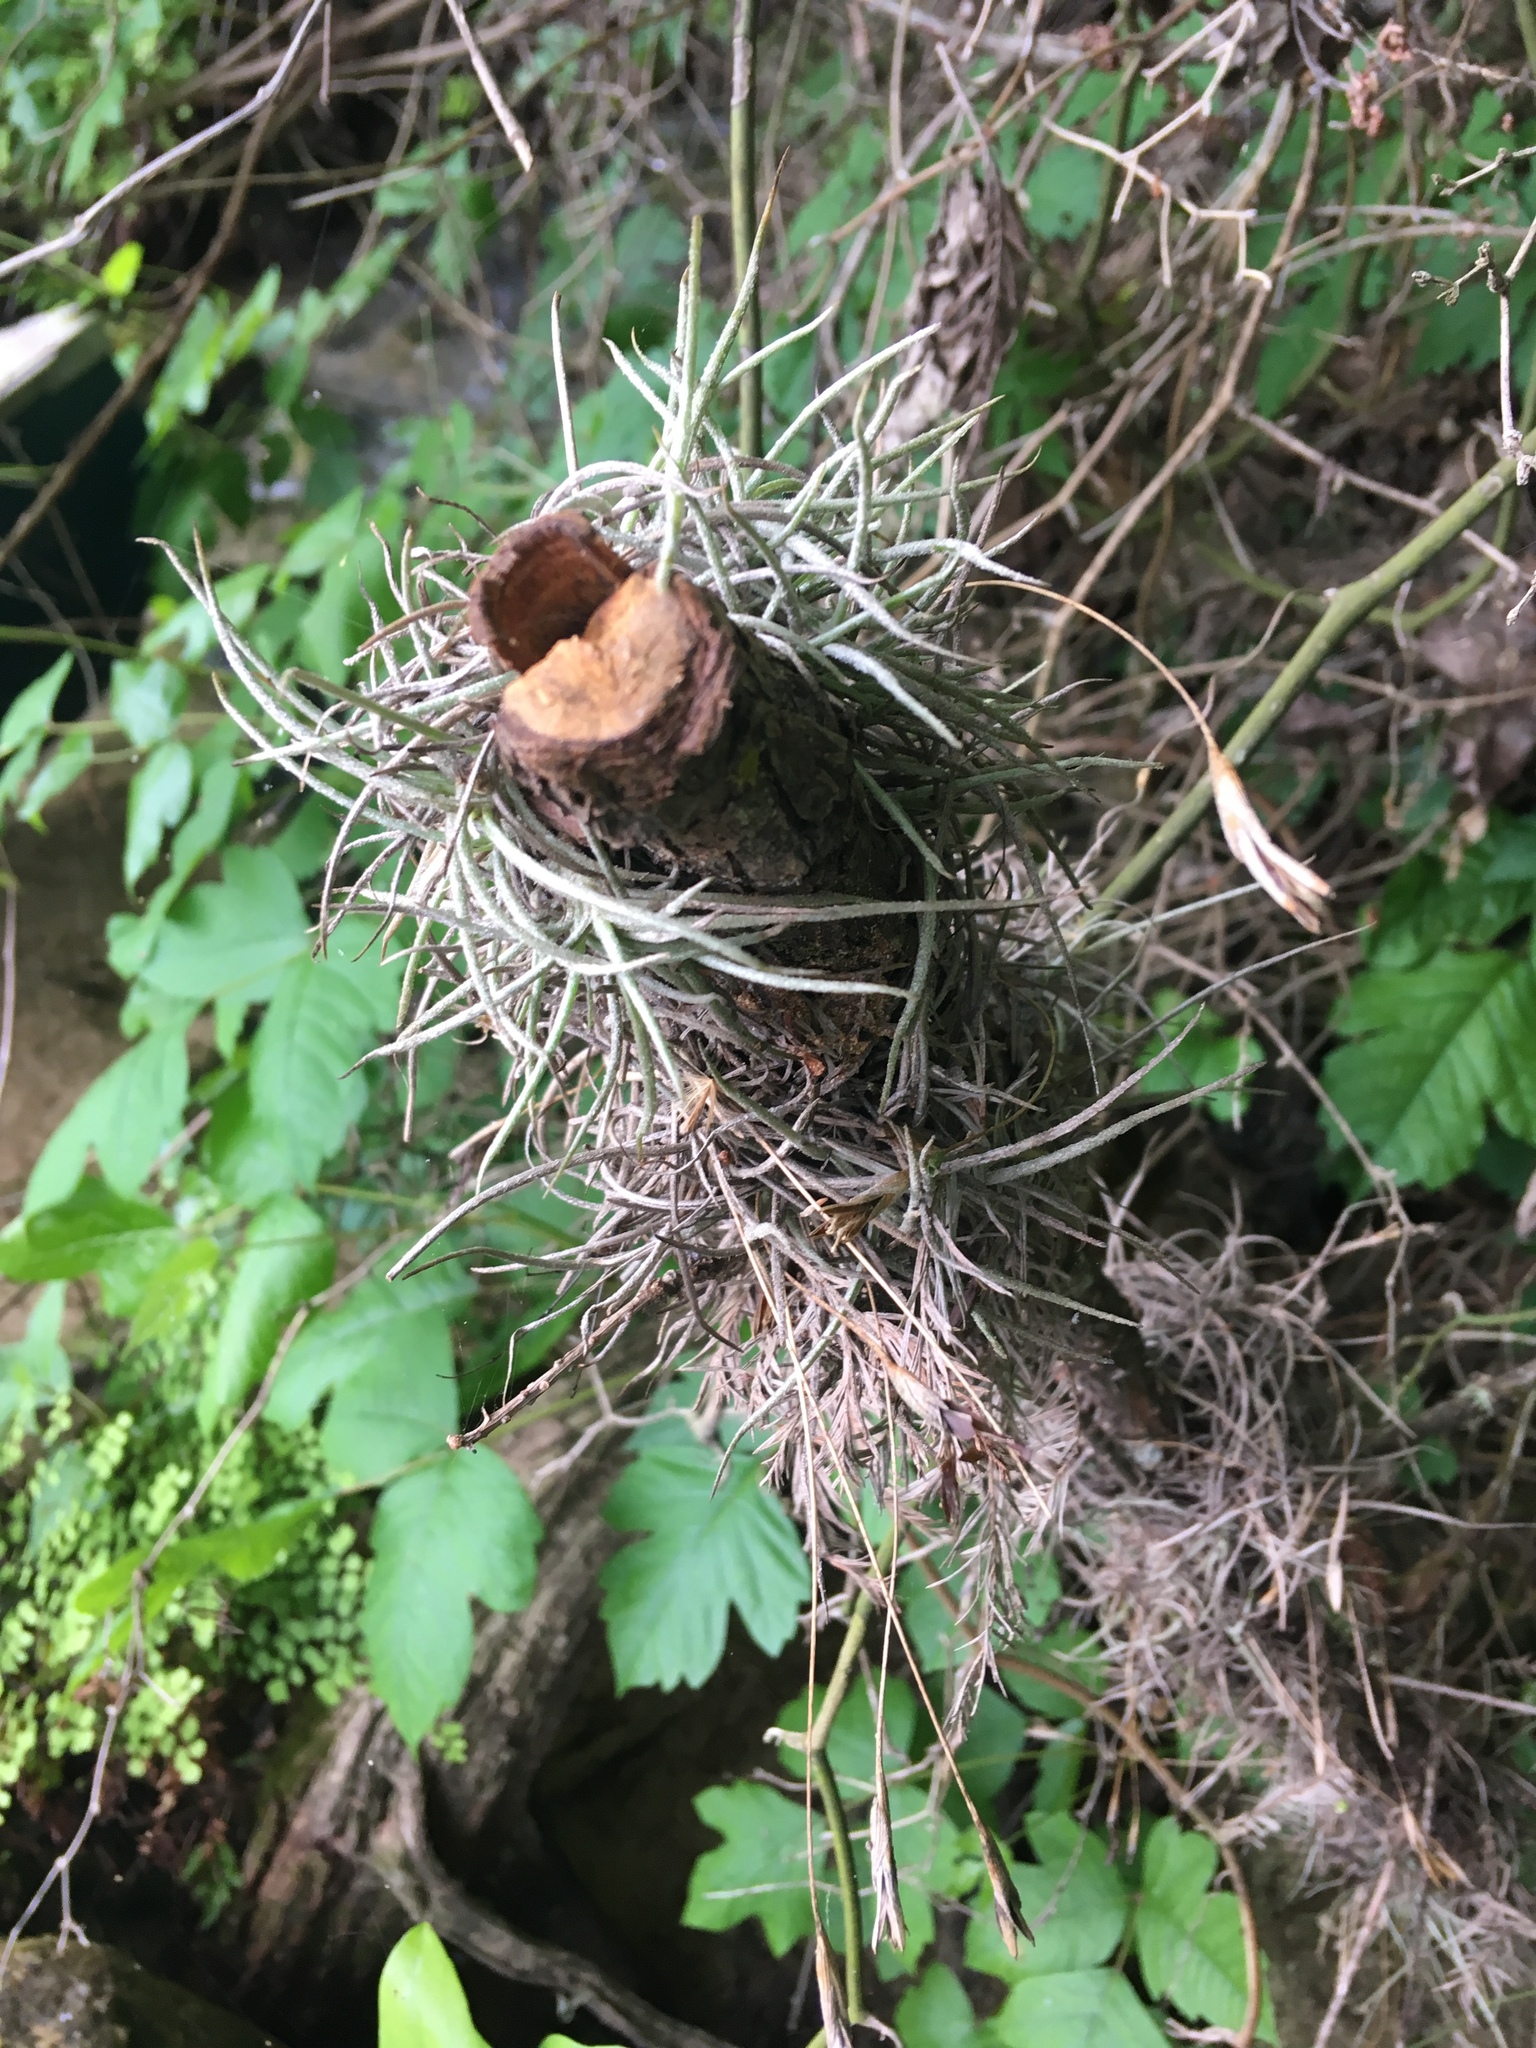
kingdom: Plantae
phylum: Tracheophyta
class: Liliopsida
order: Poales
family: Bromeliaceae
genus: Tillandsia
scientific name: Tillandsia recurvata
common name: Small ballmoss
